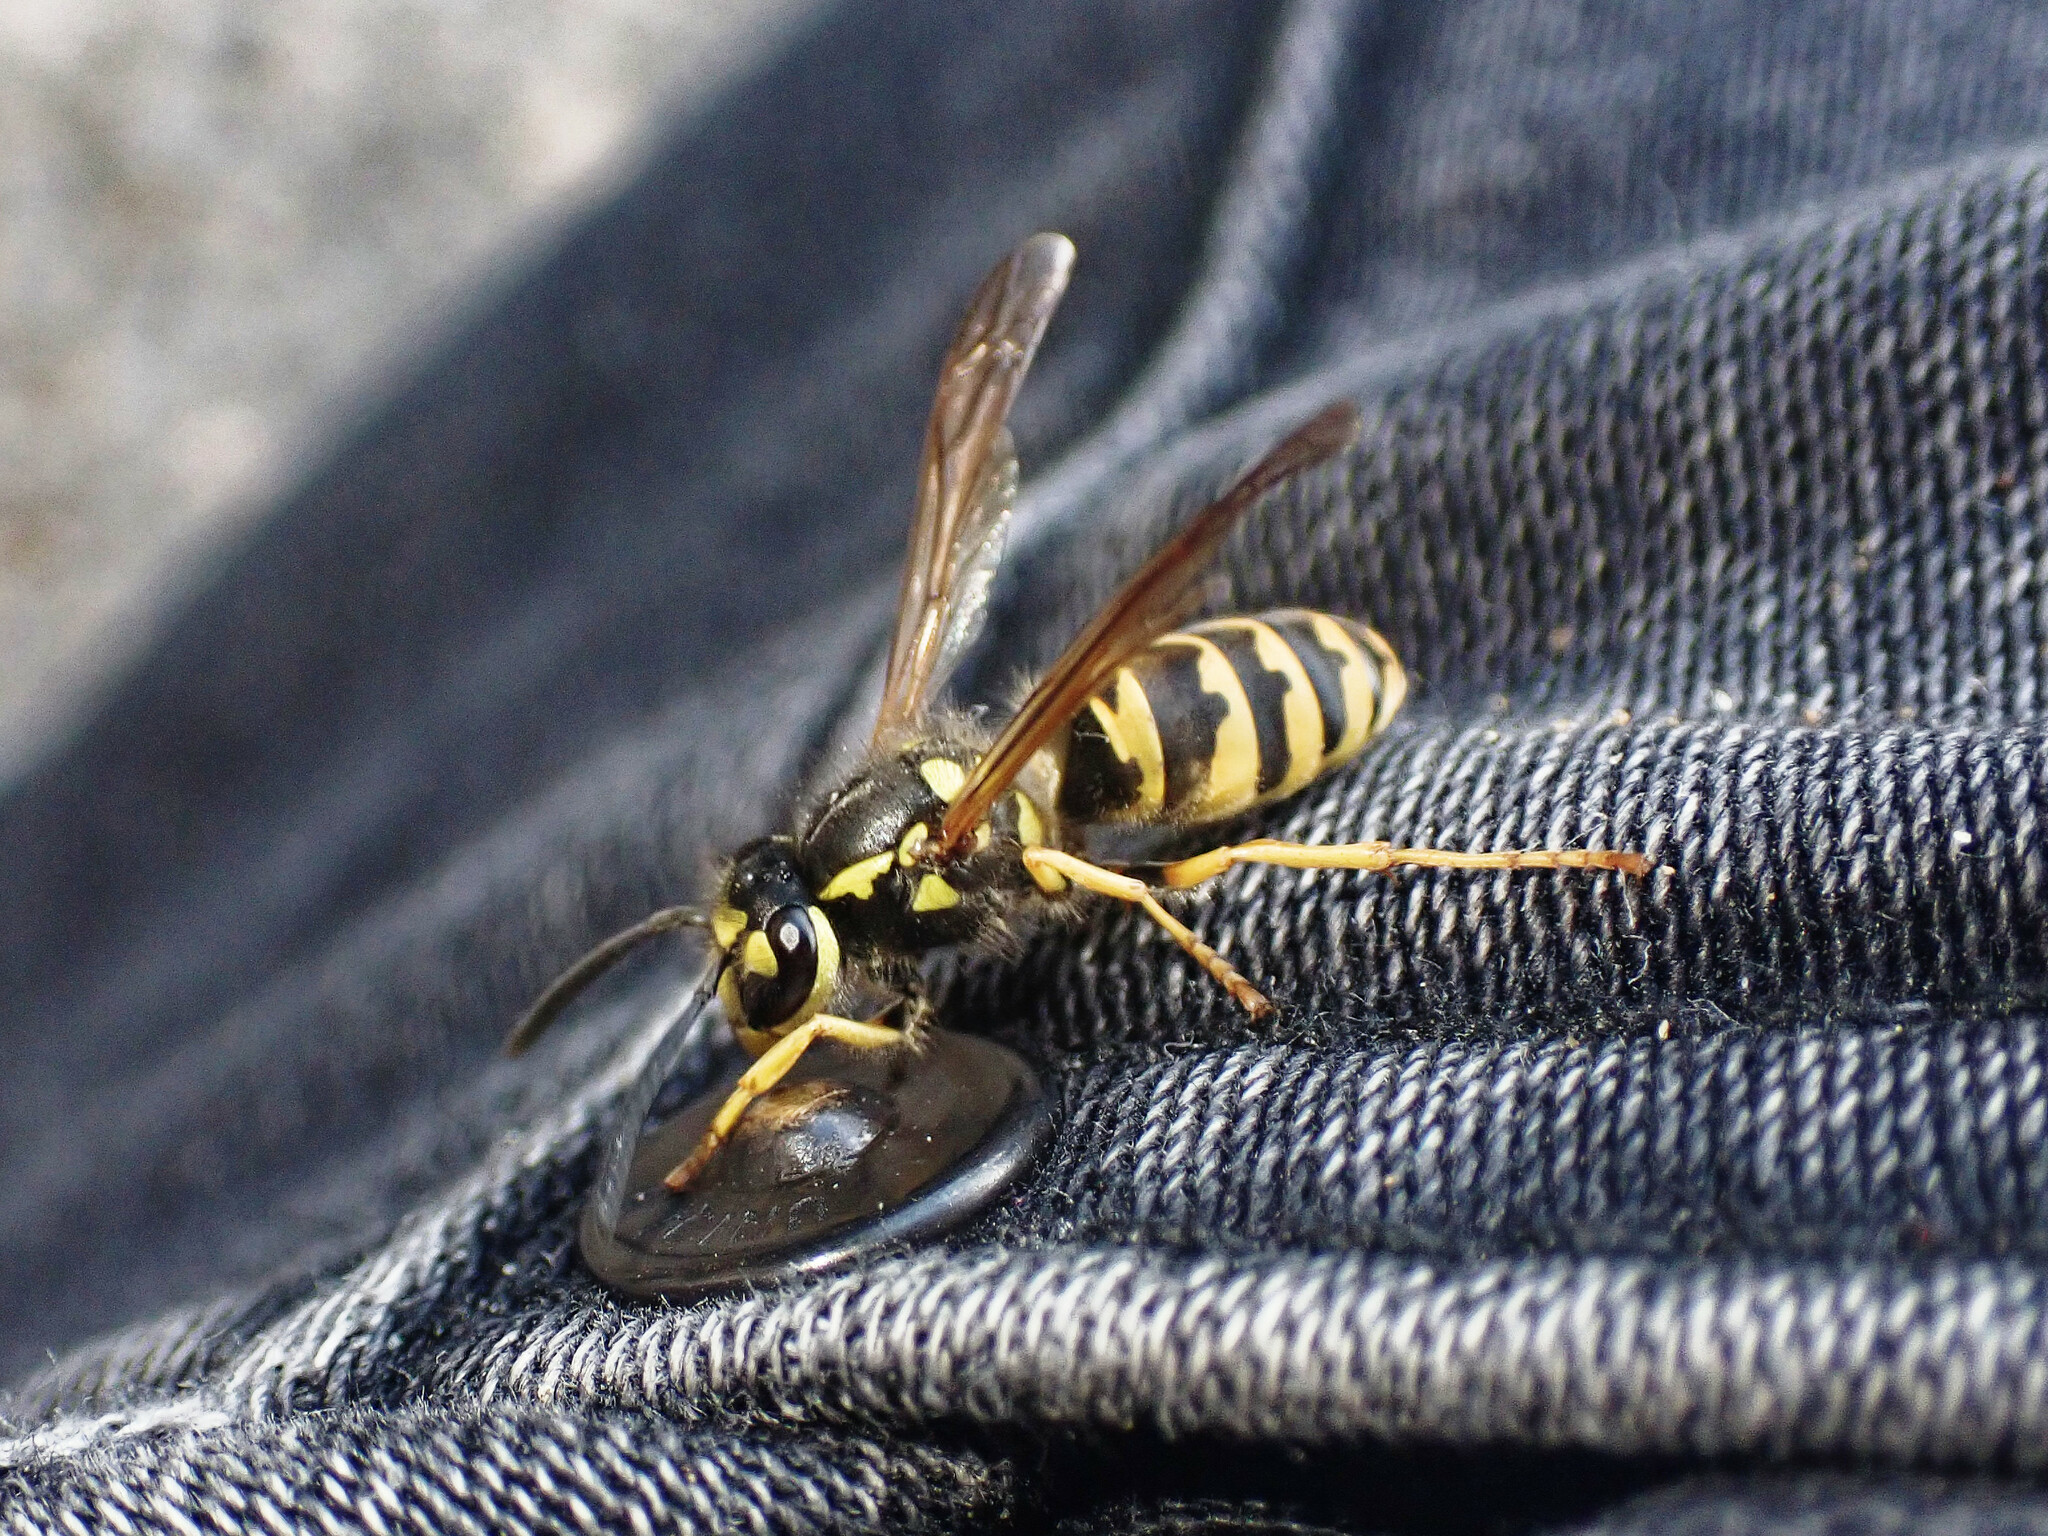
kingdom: Animalia
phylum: Arthropoda
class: Insecta
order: Hymenoptera
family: Vespidae
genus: Vespula
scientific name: Vespula vulgaris
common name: Common wasp
